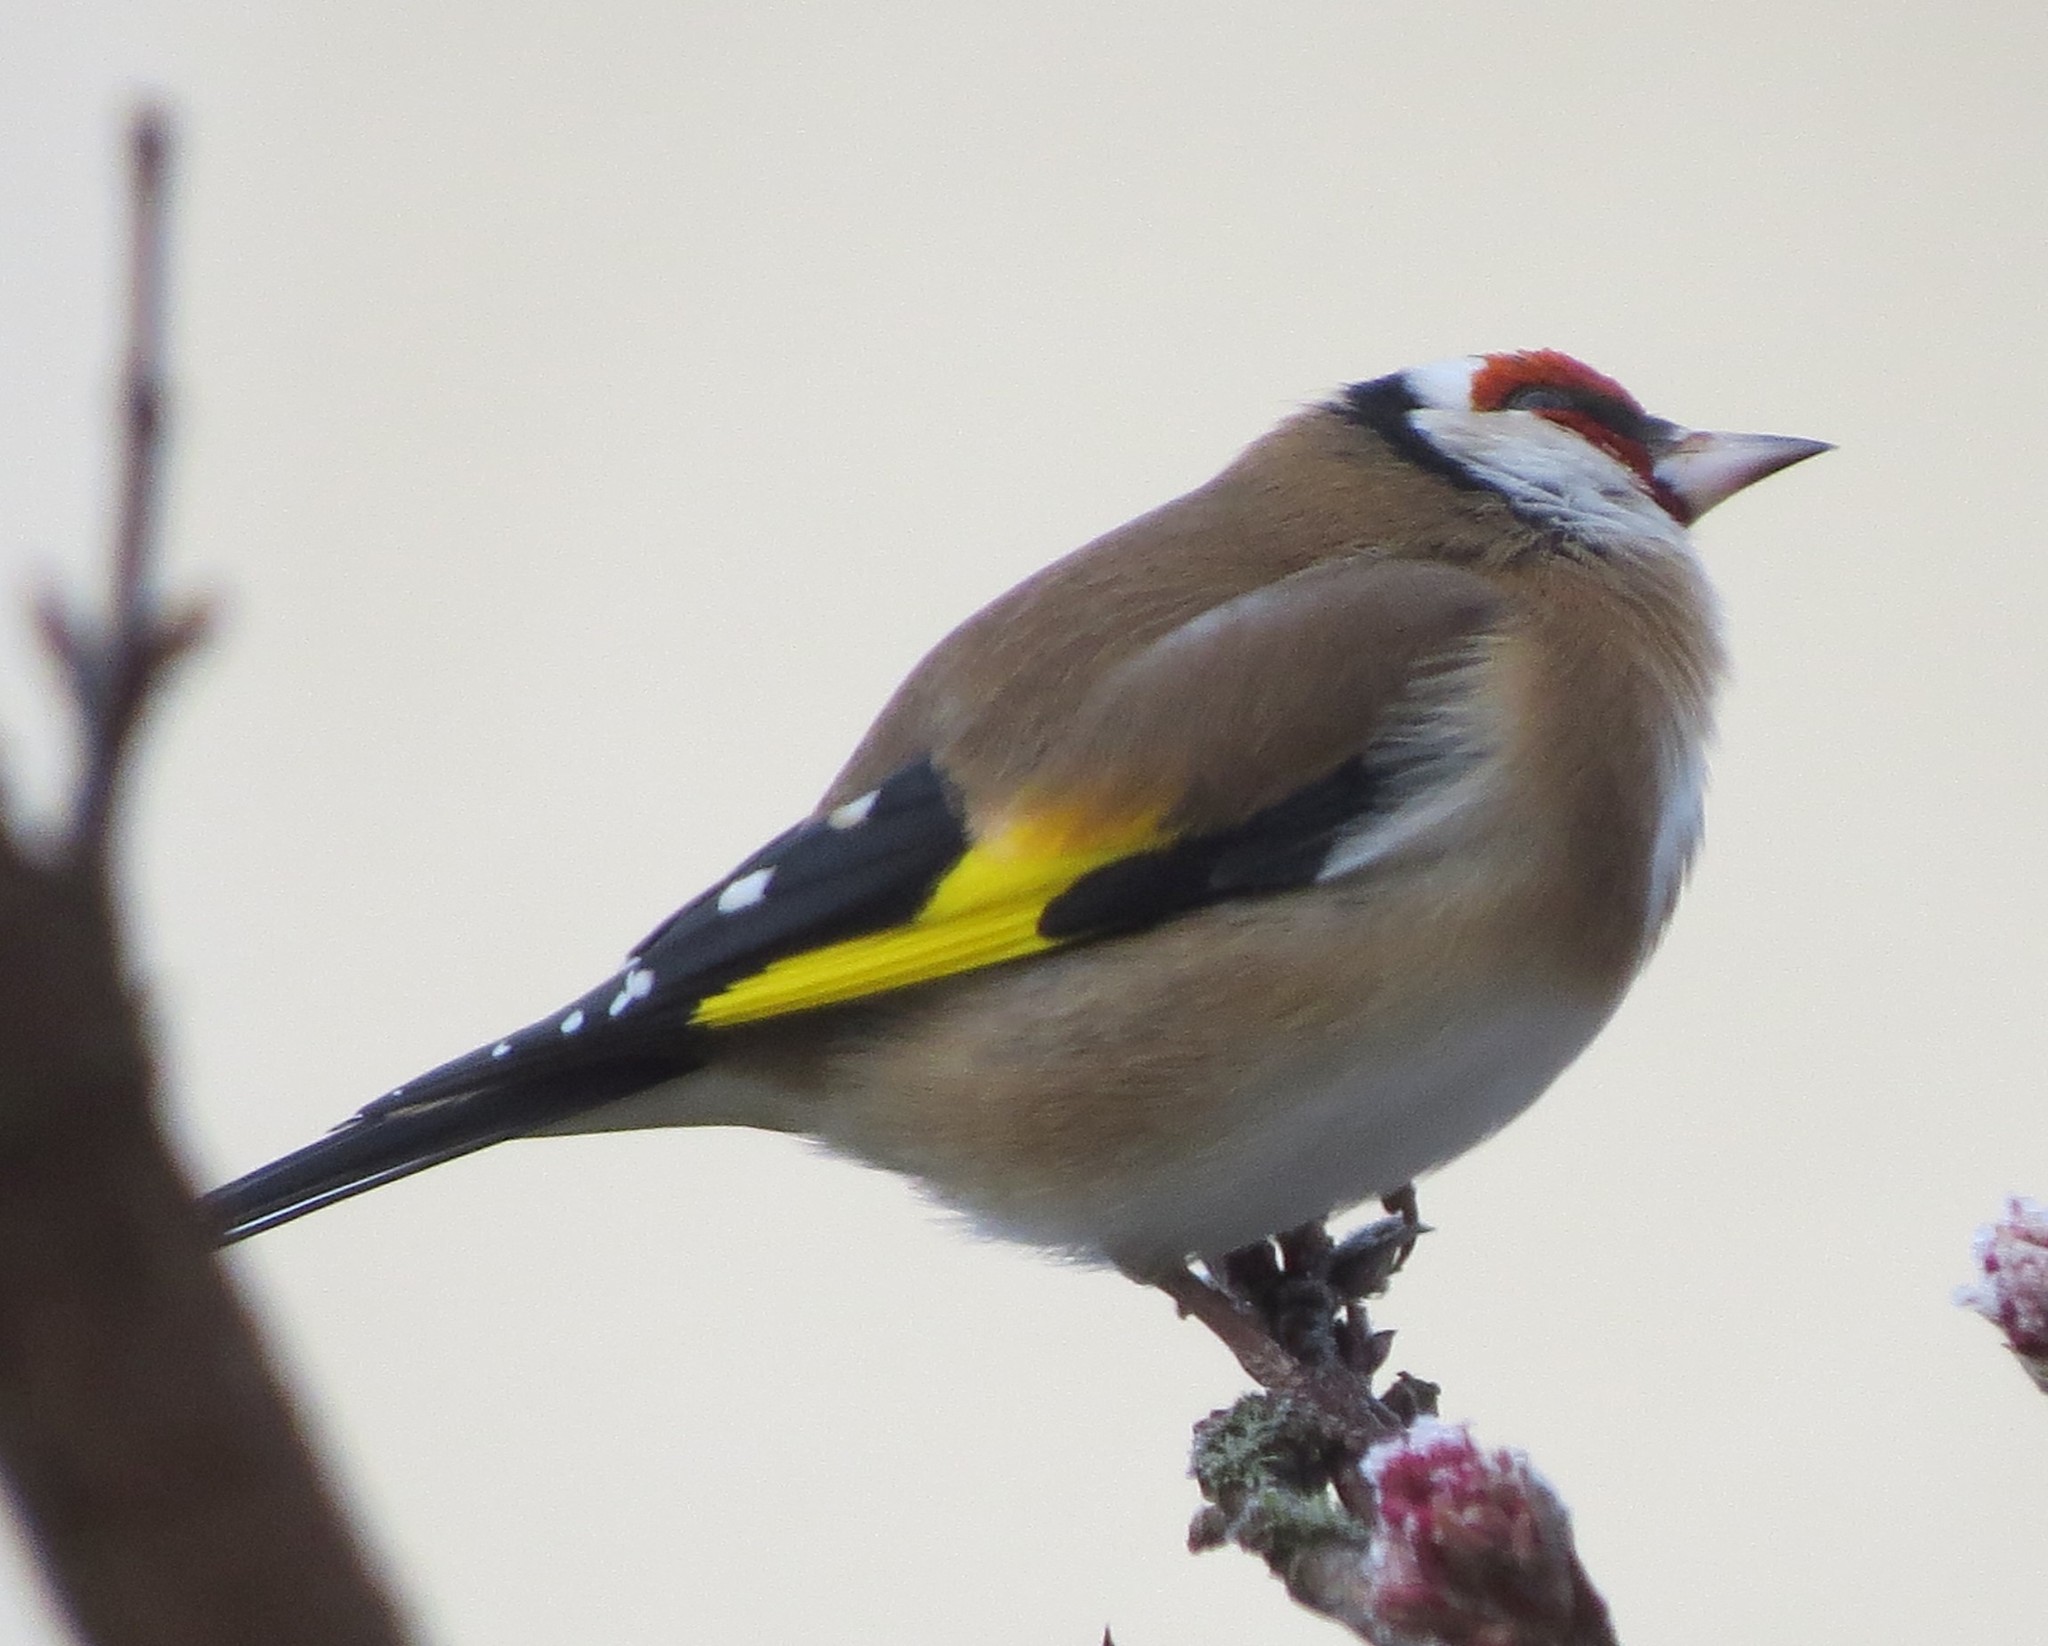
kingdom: Animalia
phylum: Chordata
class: Aves
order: Passeriformes
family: Fringillidae
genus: Carduelis
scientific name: Carduelis carduelis
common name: European goldfinch
